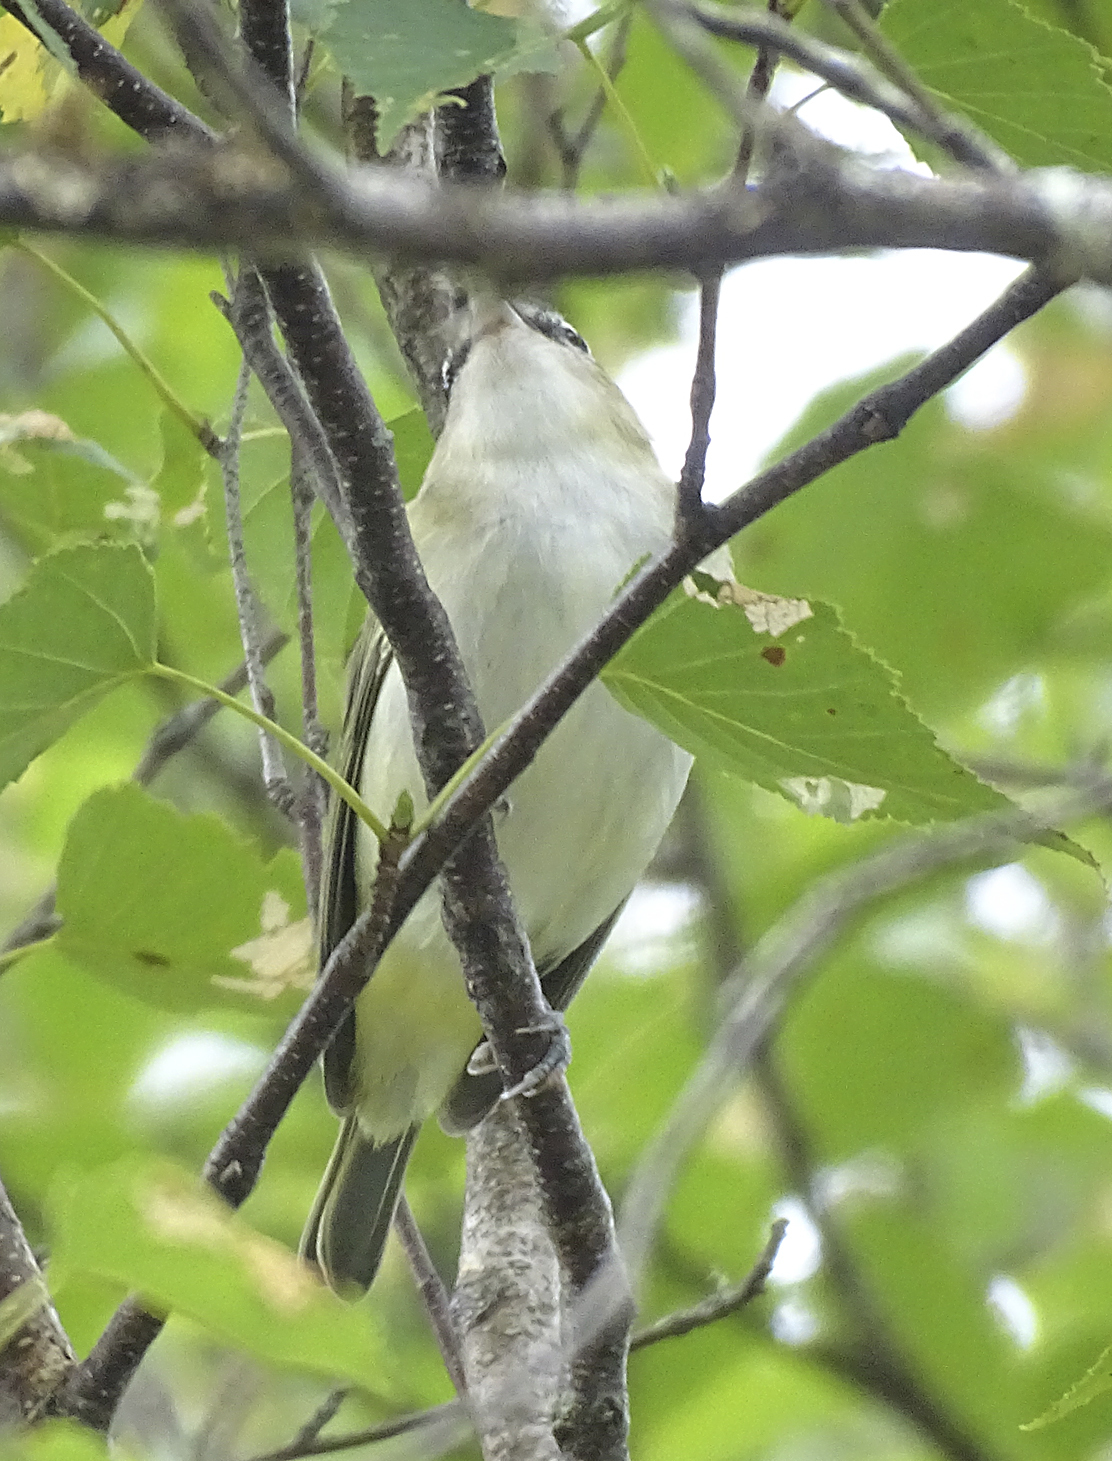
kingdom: Animalia
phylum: Chordata
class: Aves
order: Passeriformes
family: Vireonidae
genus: Vireo
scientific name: Vireo olivaceus
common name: Red-eyed vireo
